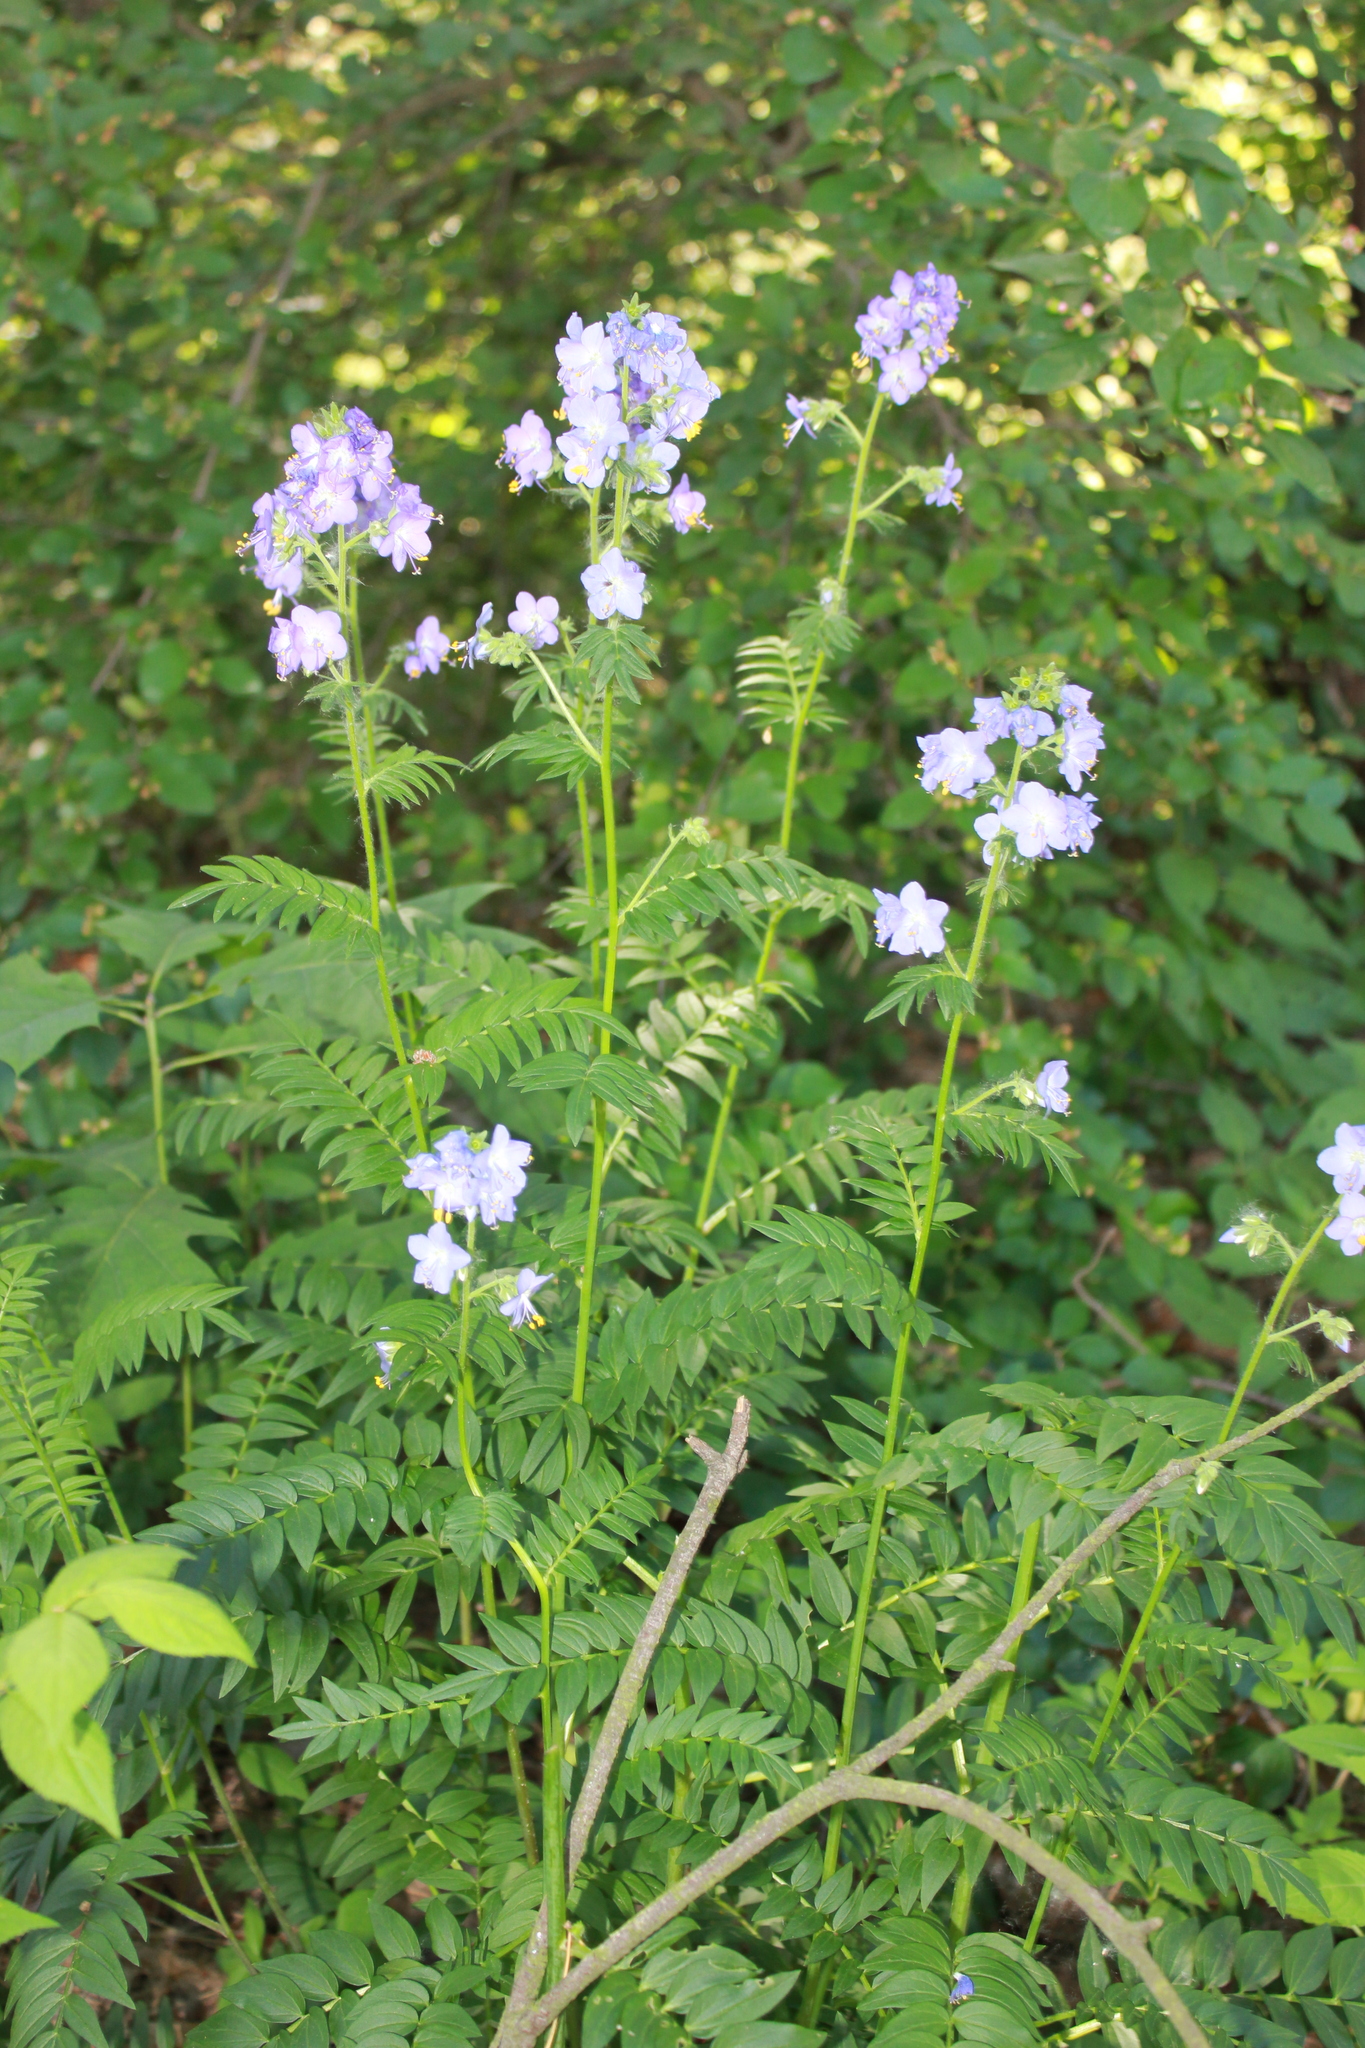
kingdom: Plantae
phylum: Tracheophyta
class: Magnoliopsida
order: Ericales
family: Polemoniaceae
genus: Polemonium
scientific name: Polemonium caeruleum
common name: Jacob's-ladder
